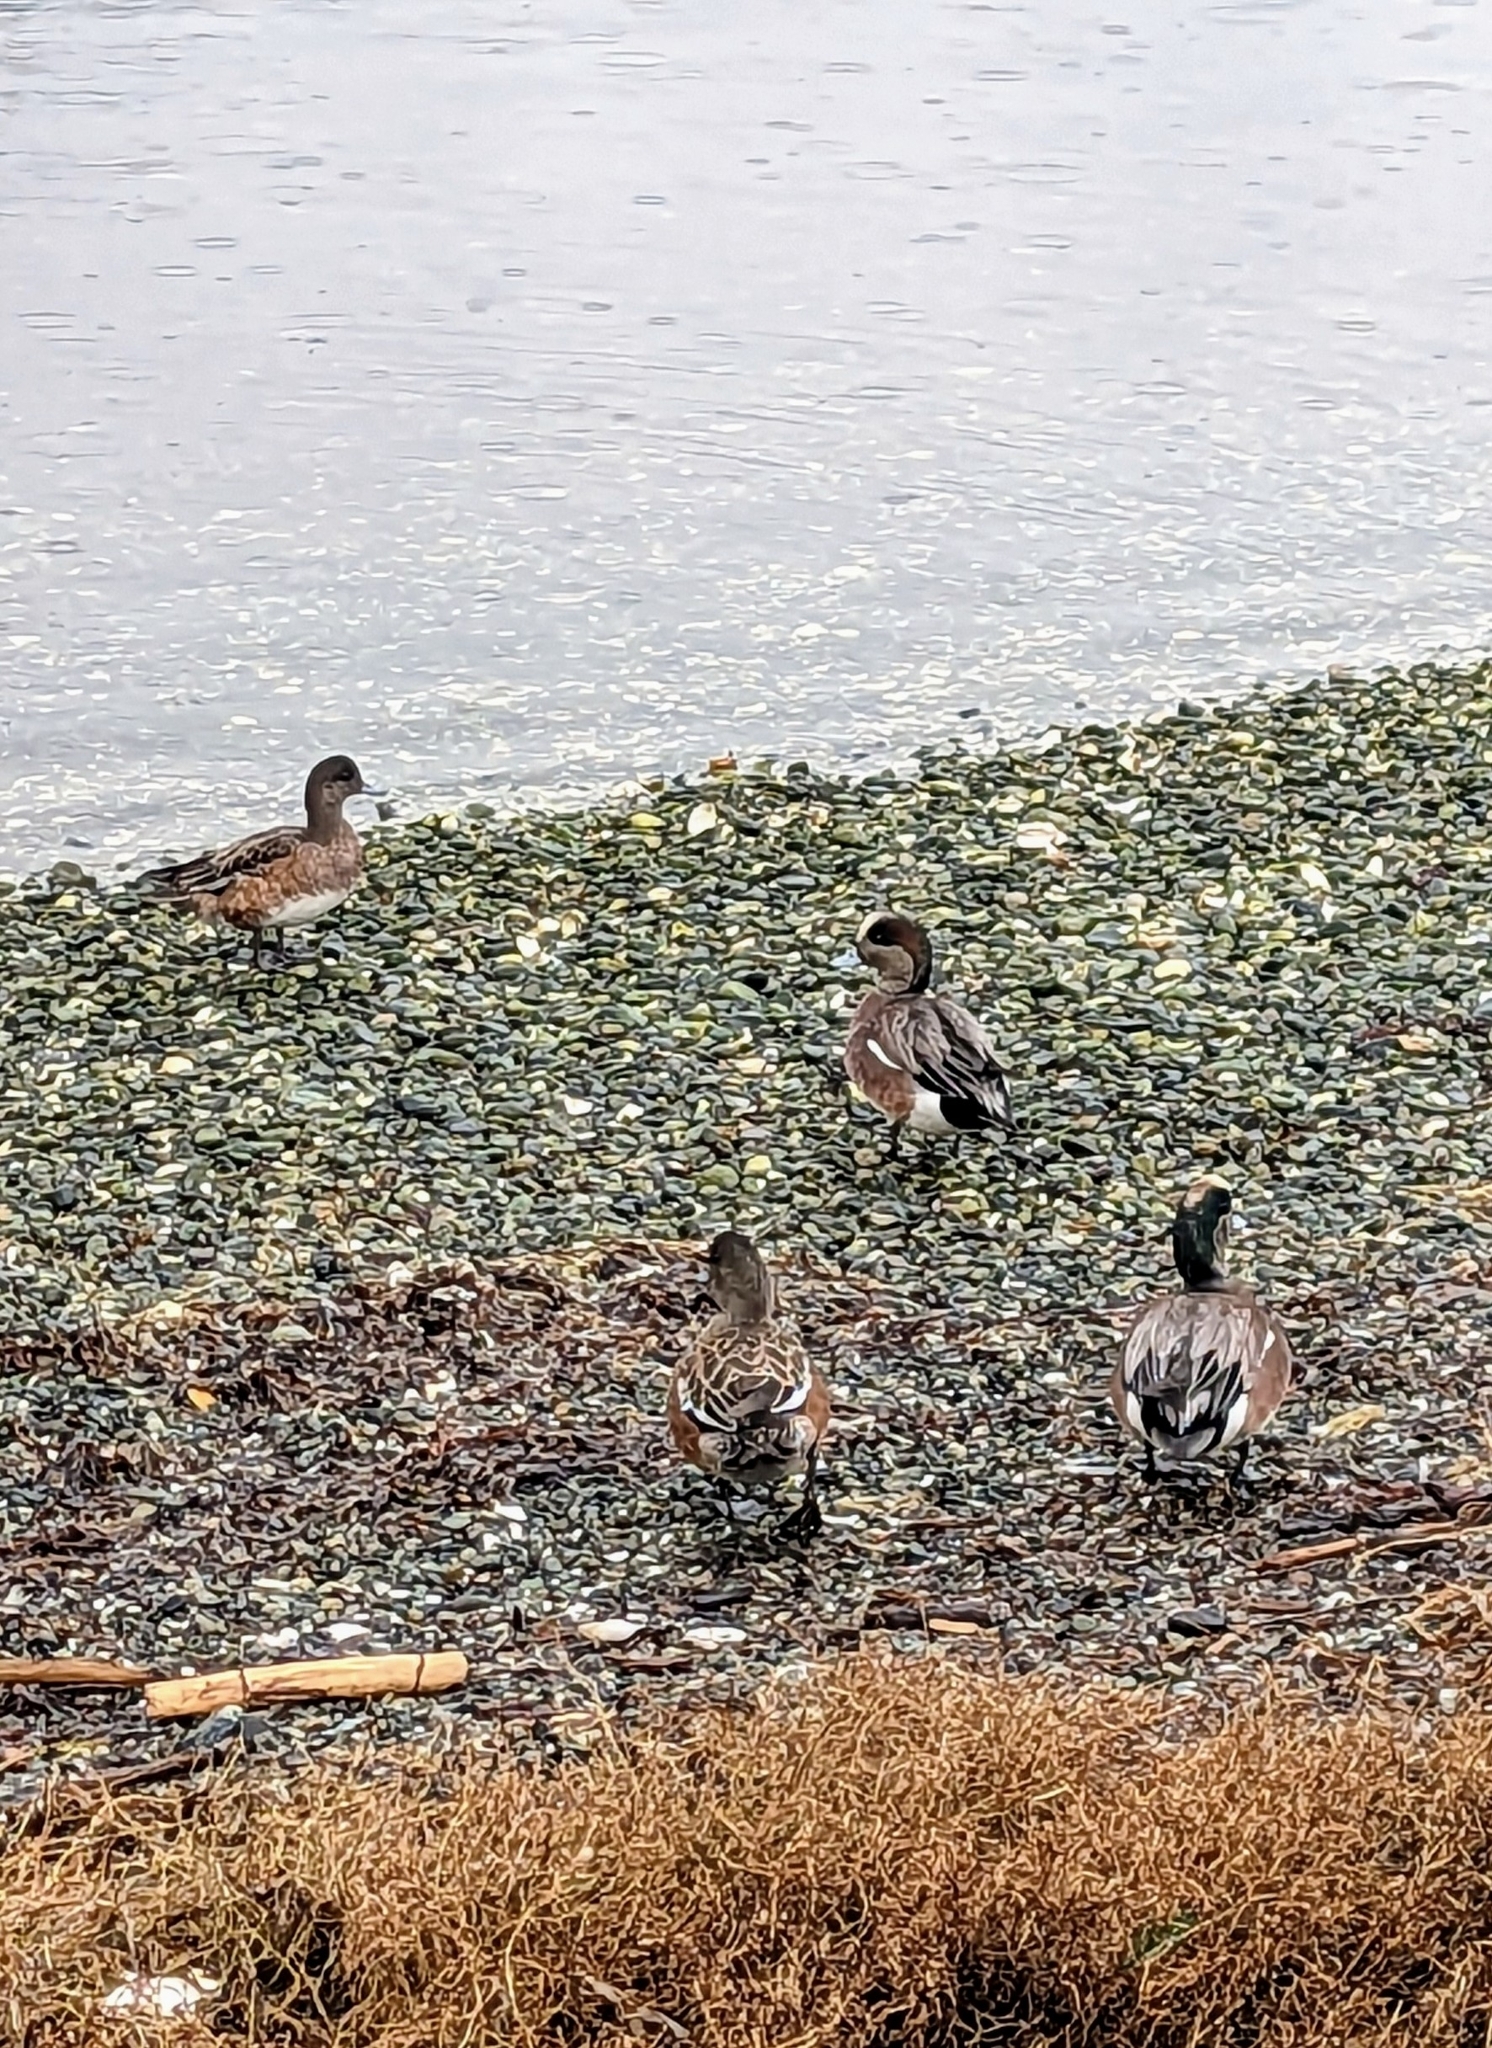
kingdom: Animalia
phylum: Chordata
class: Aves
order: Anseriformes
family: Anatidae
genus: Mareca
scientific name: Mareca americana
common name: American wigeon
